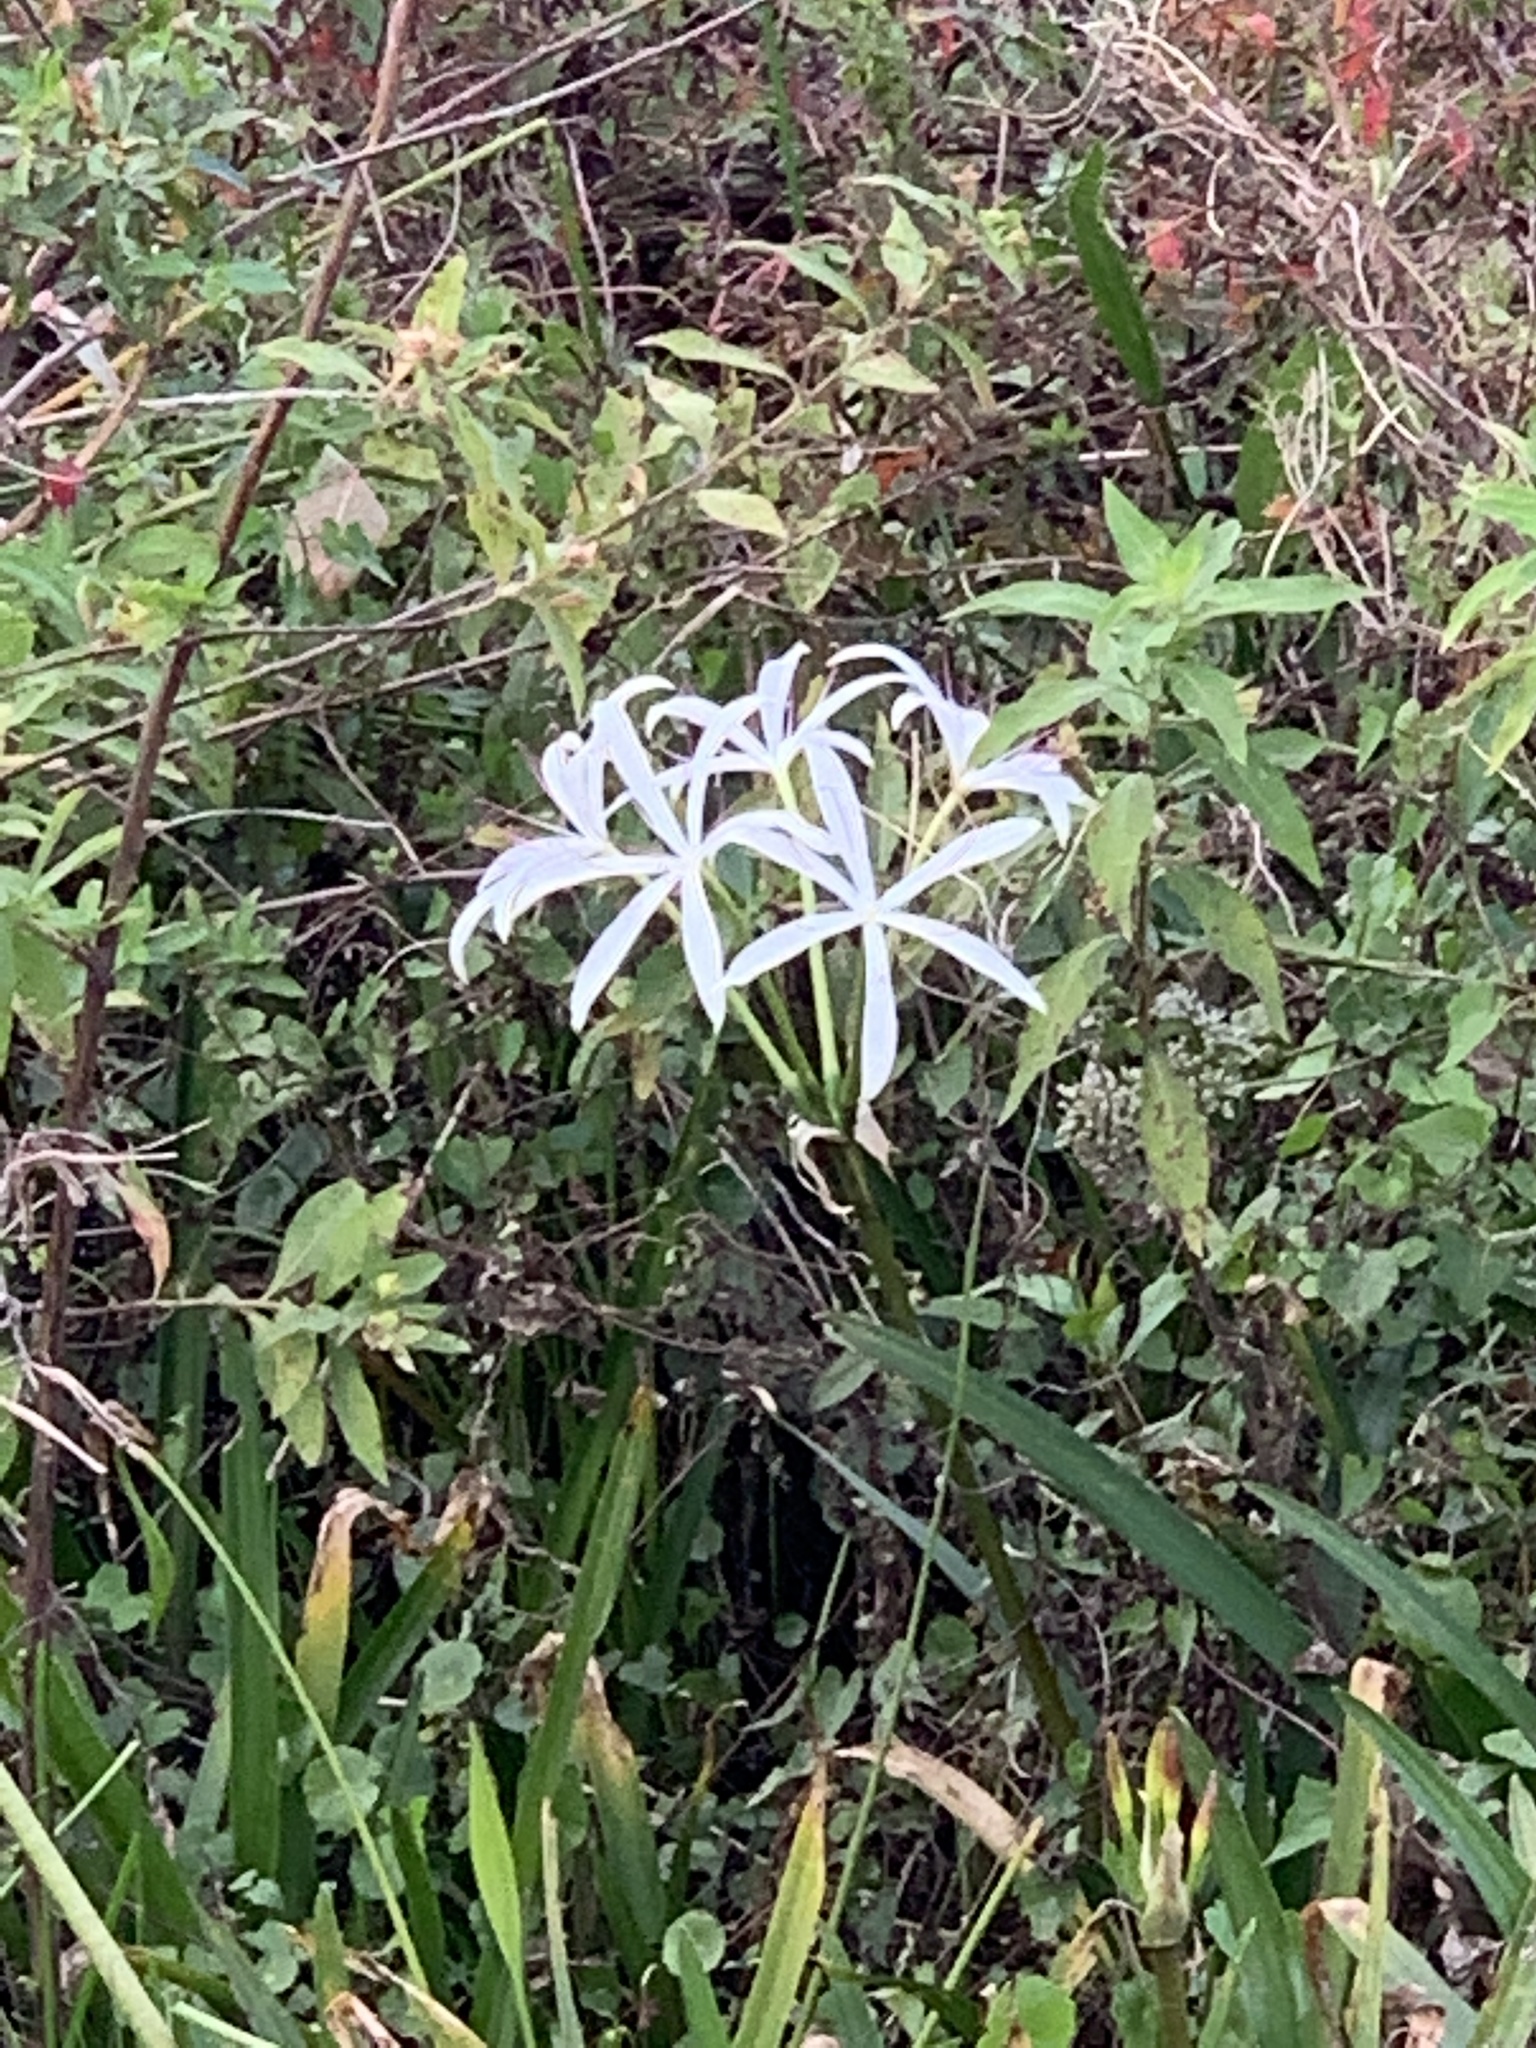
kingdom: Plantae
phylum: Tracheophyta
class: Liliopsida
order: Asparagales
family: Amaryllidaceae
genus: Crinum
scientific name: Crinum americanum
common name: Florida swamp-lily
